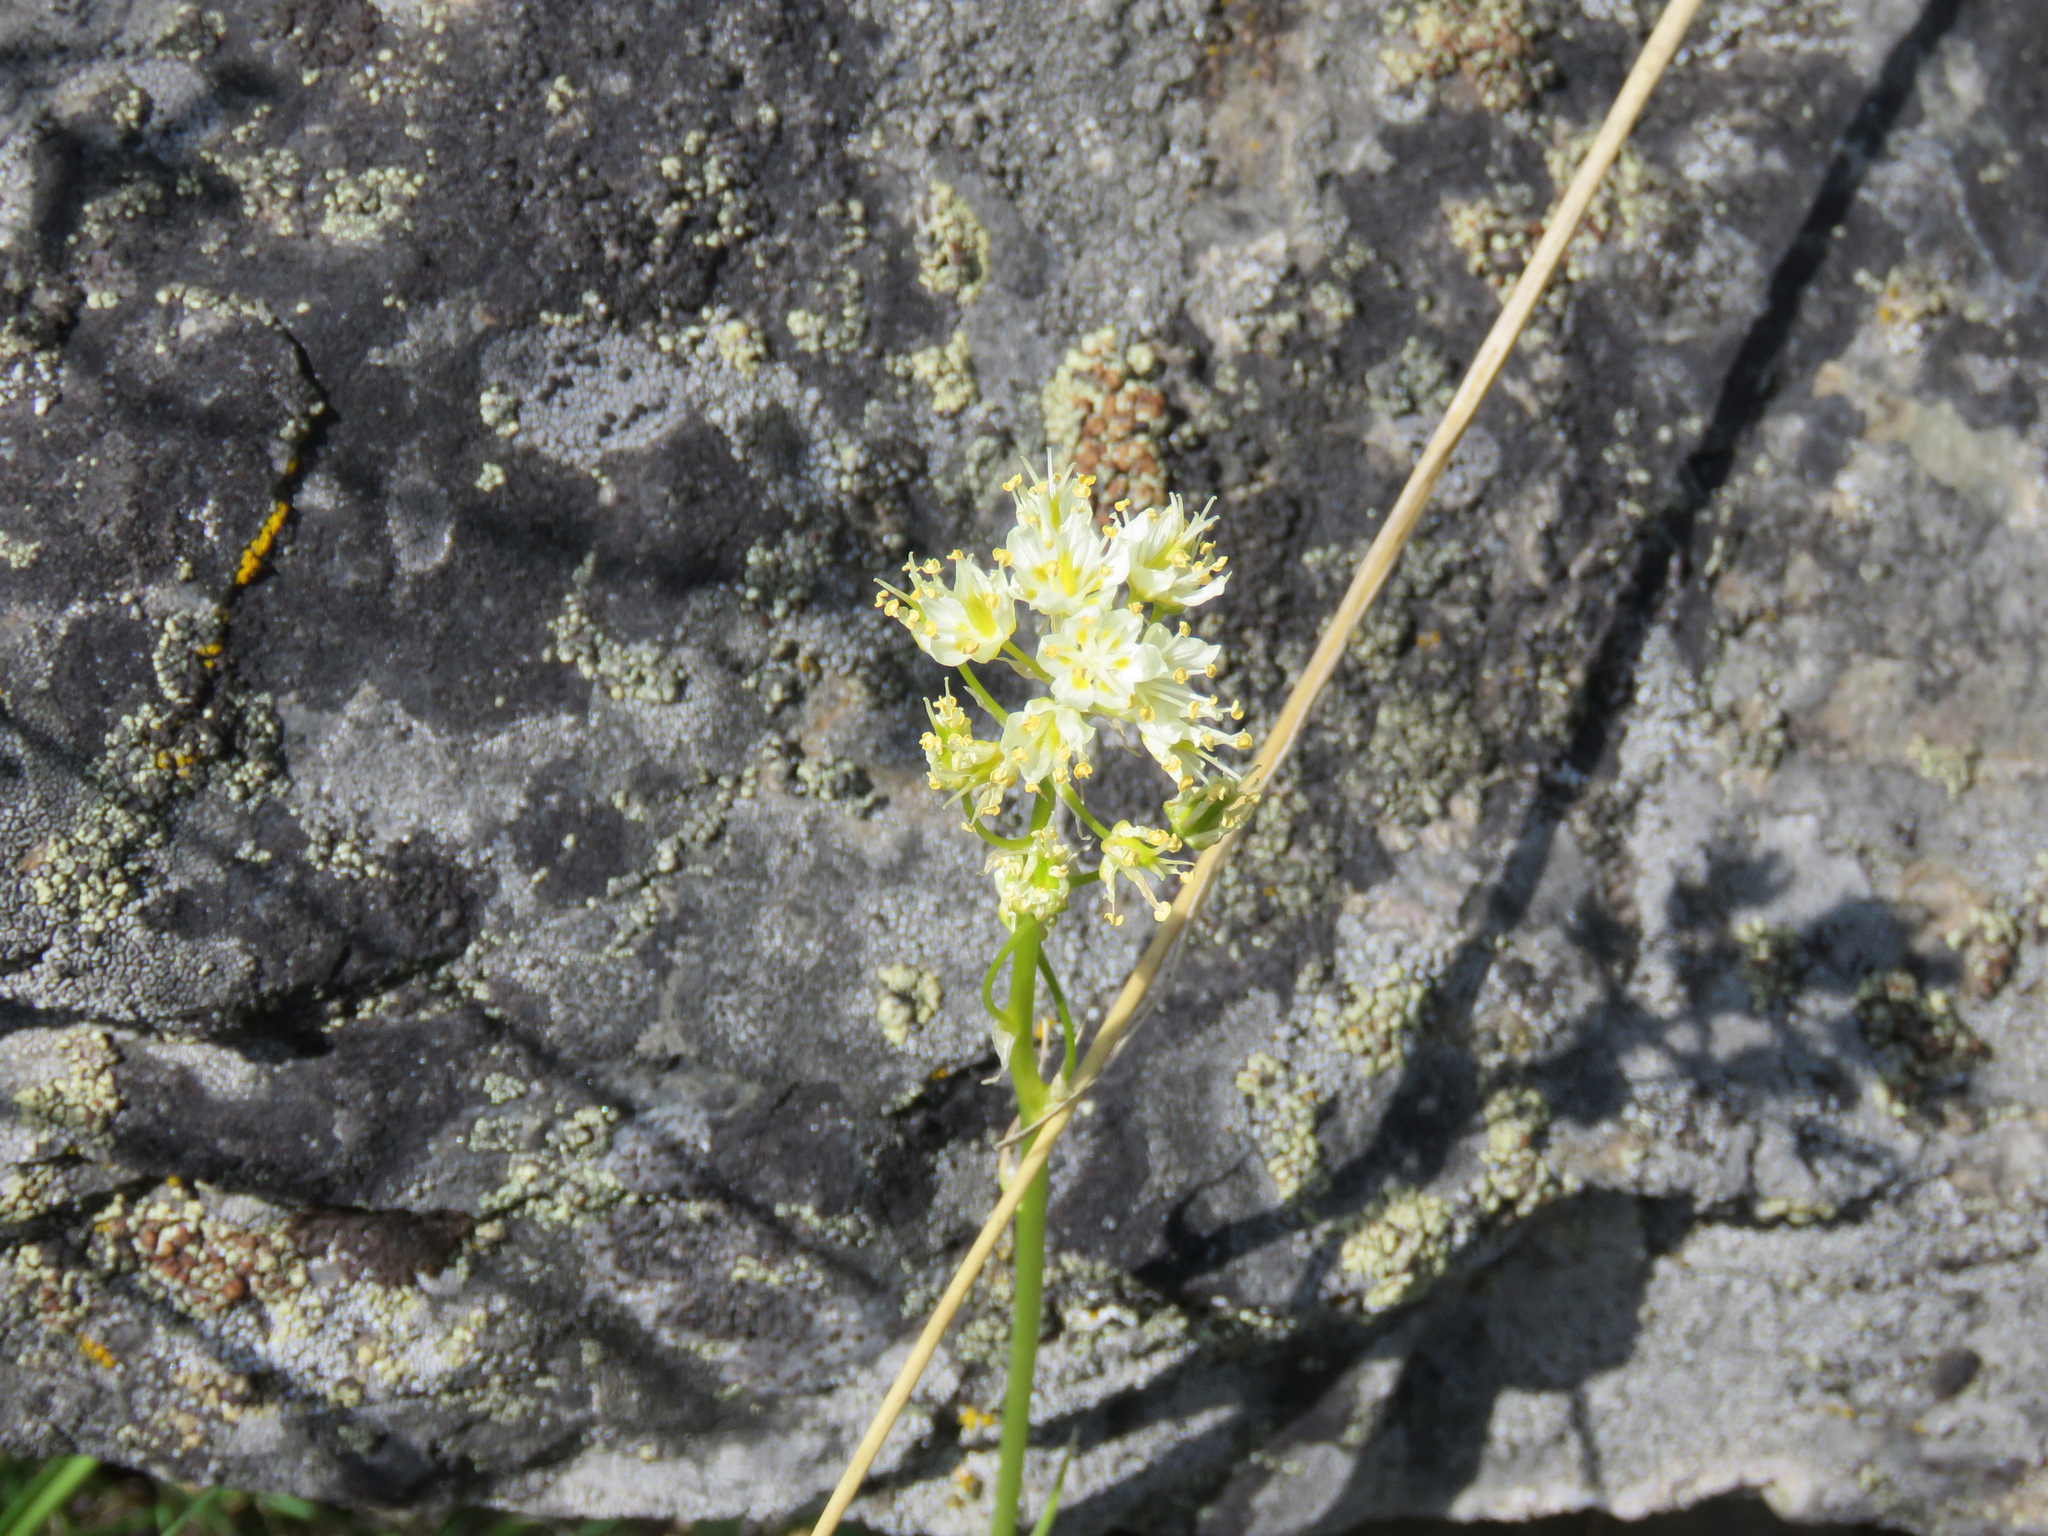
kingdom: Plantae
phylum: Tracheophyta
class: Liliopsida
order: Liliales
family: Melanthiaceae
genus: Toxicoscordion
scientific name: Toxicoscordion venenosum
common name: Meadow death camas
